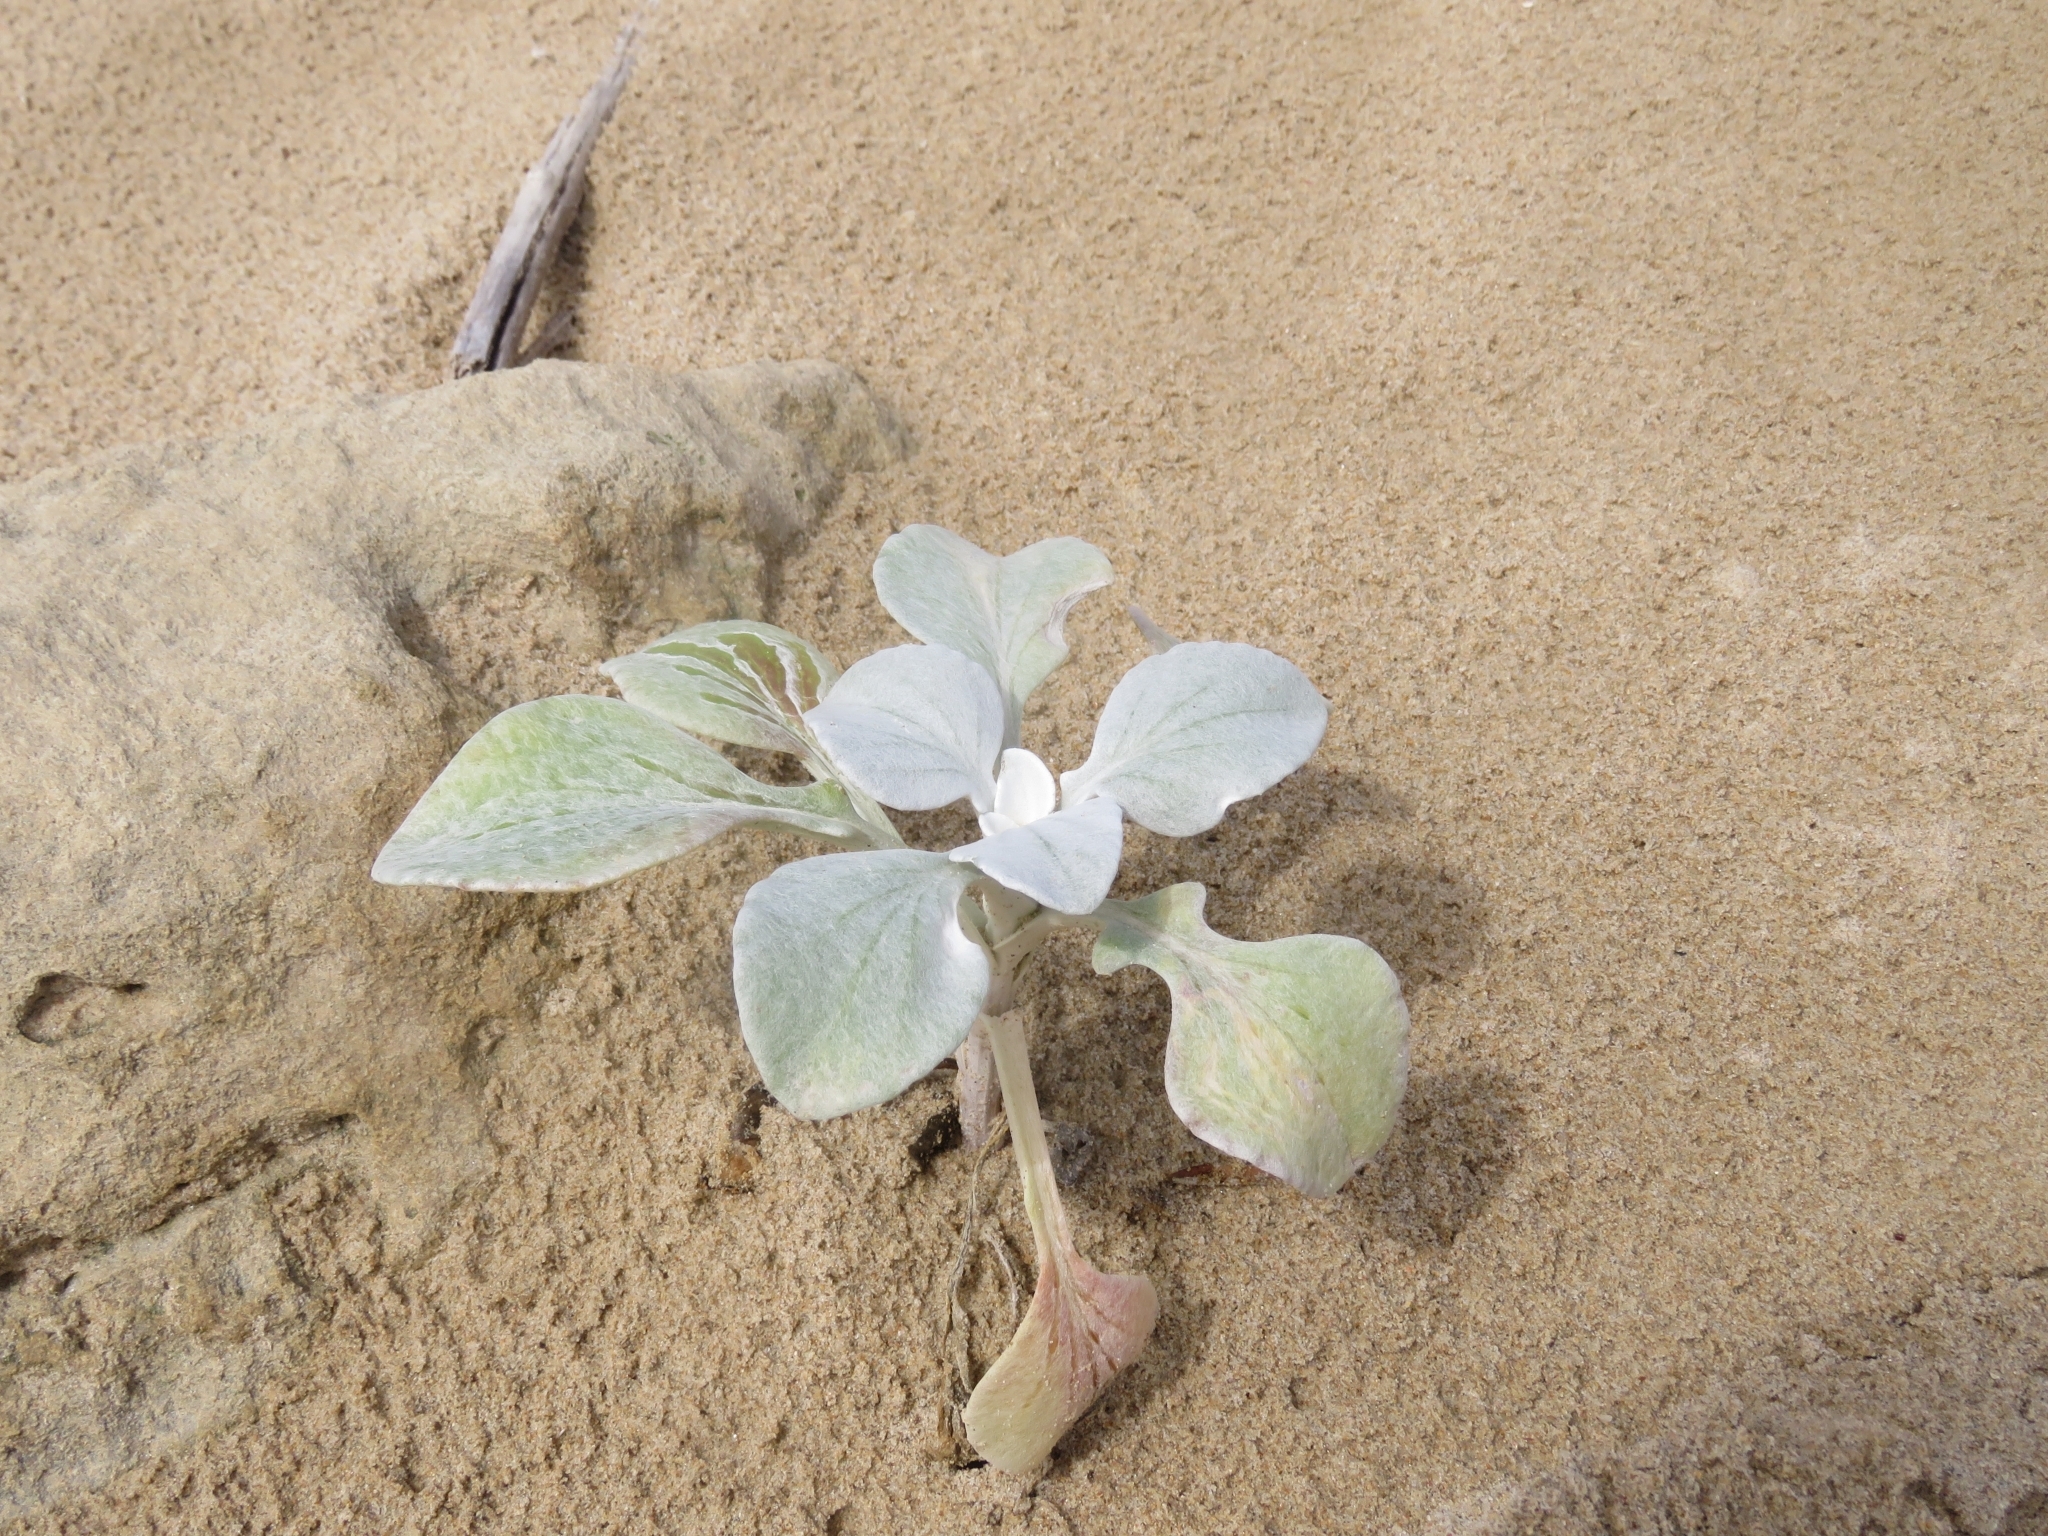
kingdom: Plantae
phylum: Tracheophyta
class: Magnoliopsida
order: Asterales
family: Asteraceae
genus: Arctotheca
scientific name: Arctotheca populifolia
